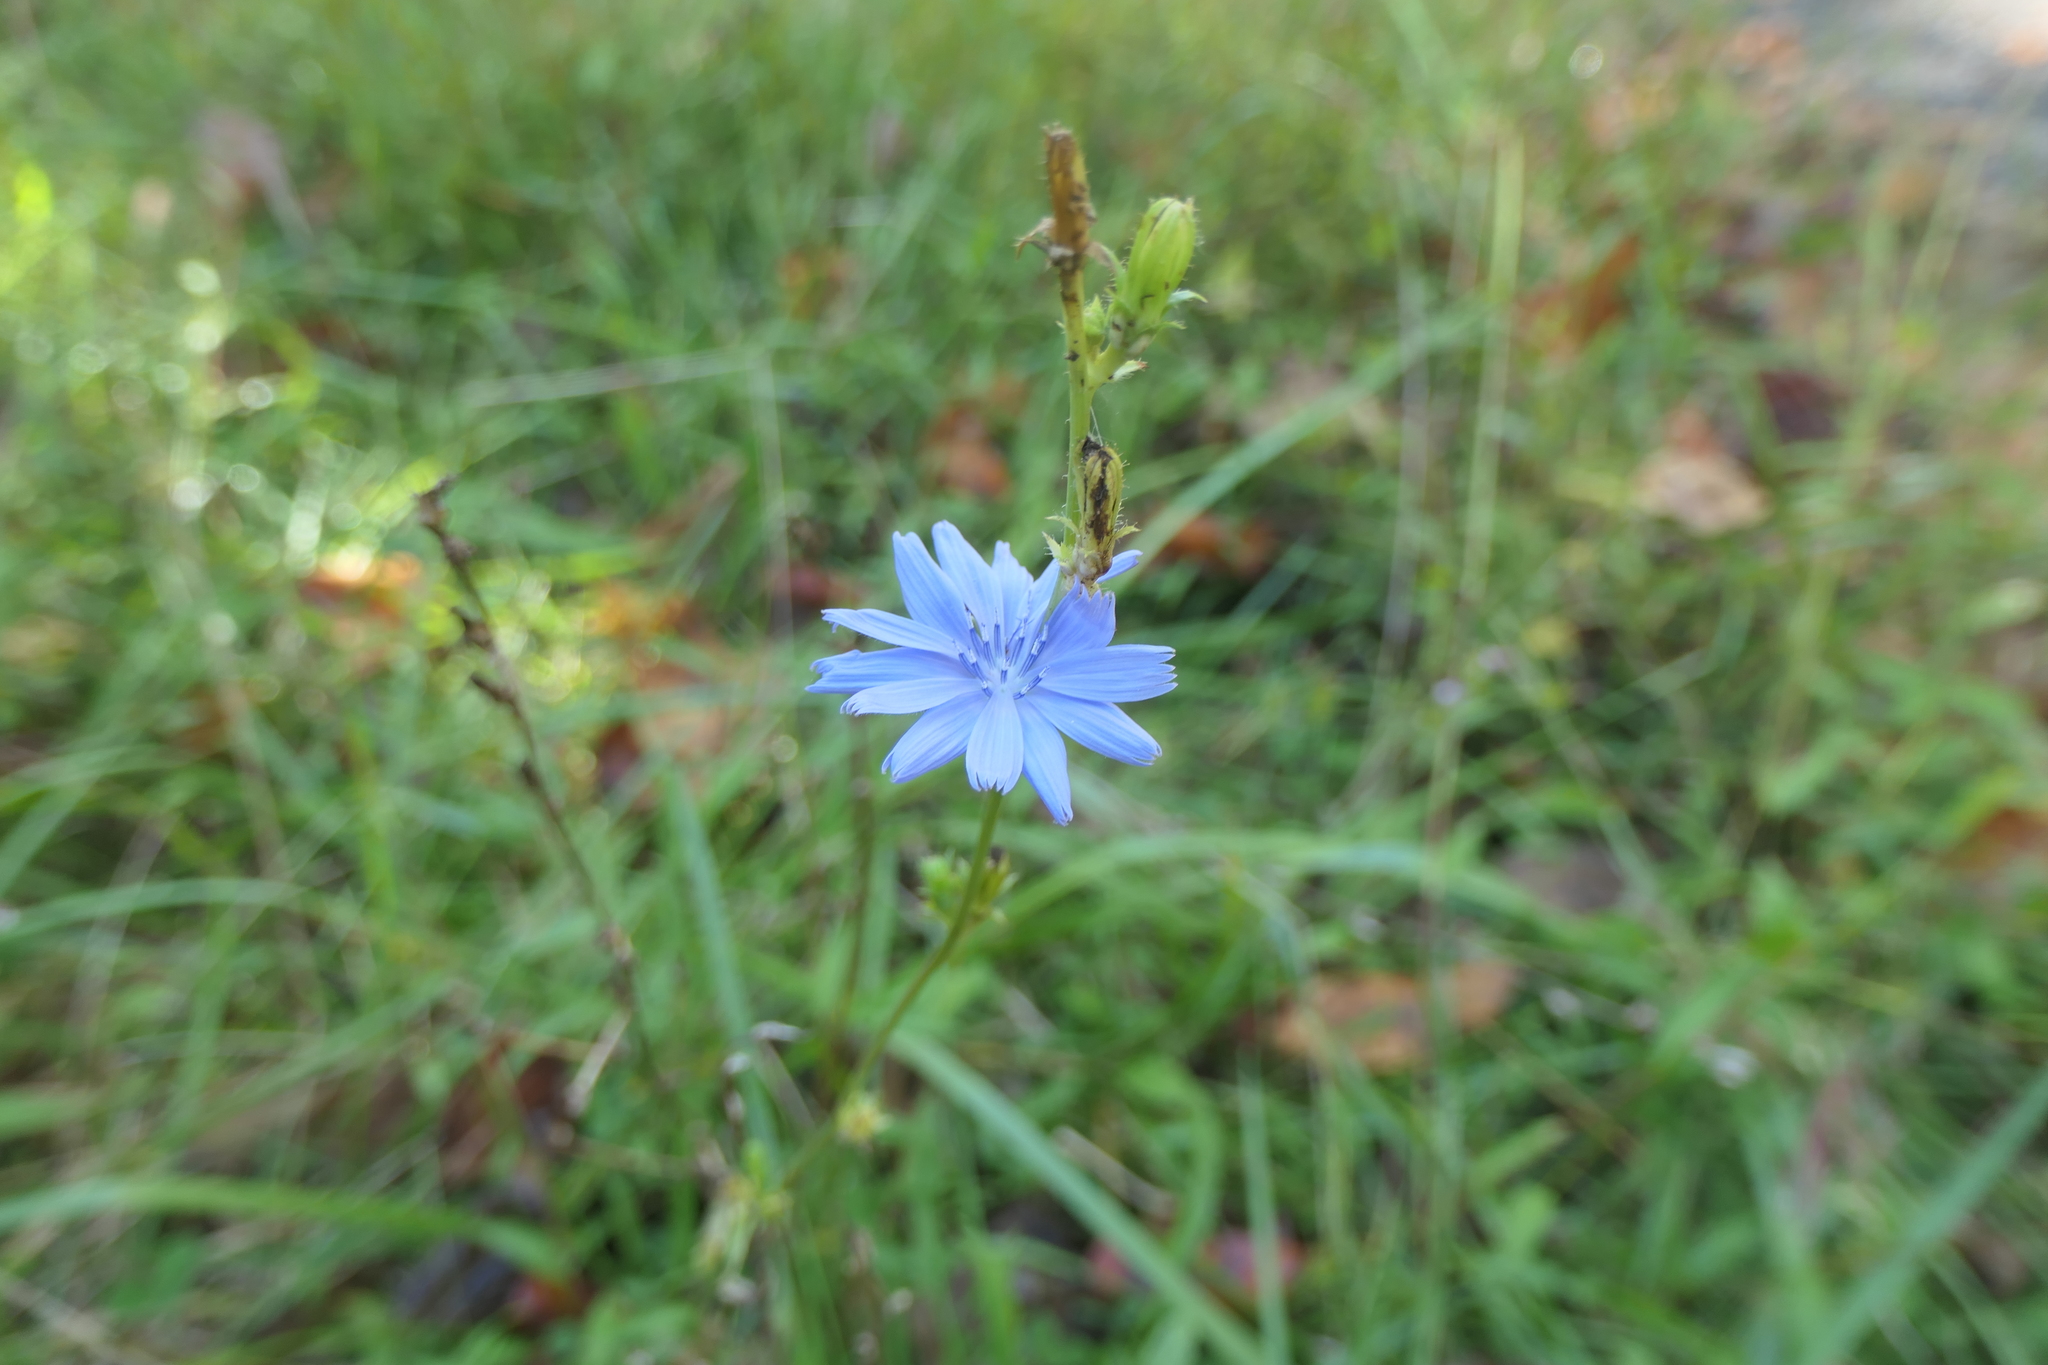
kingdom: Plantae
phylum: Tracheophyta
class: Magnoliopsida
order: Asterales
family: Asteraceae
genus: Cichorium
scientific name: Cichorium intybus
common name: Chicory
